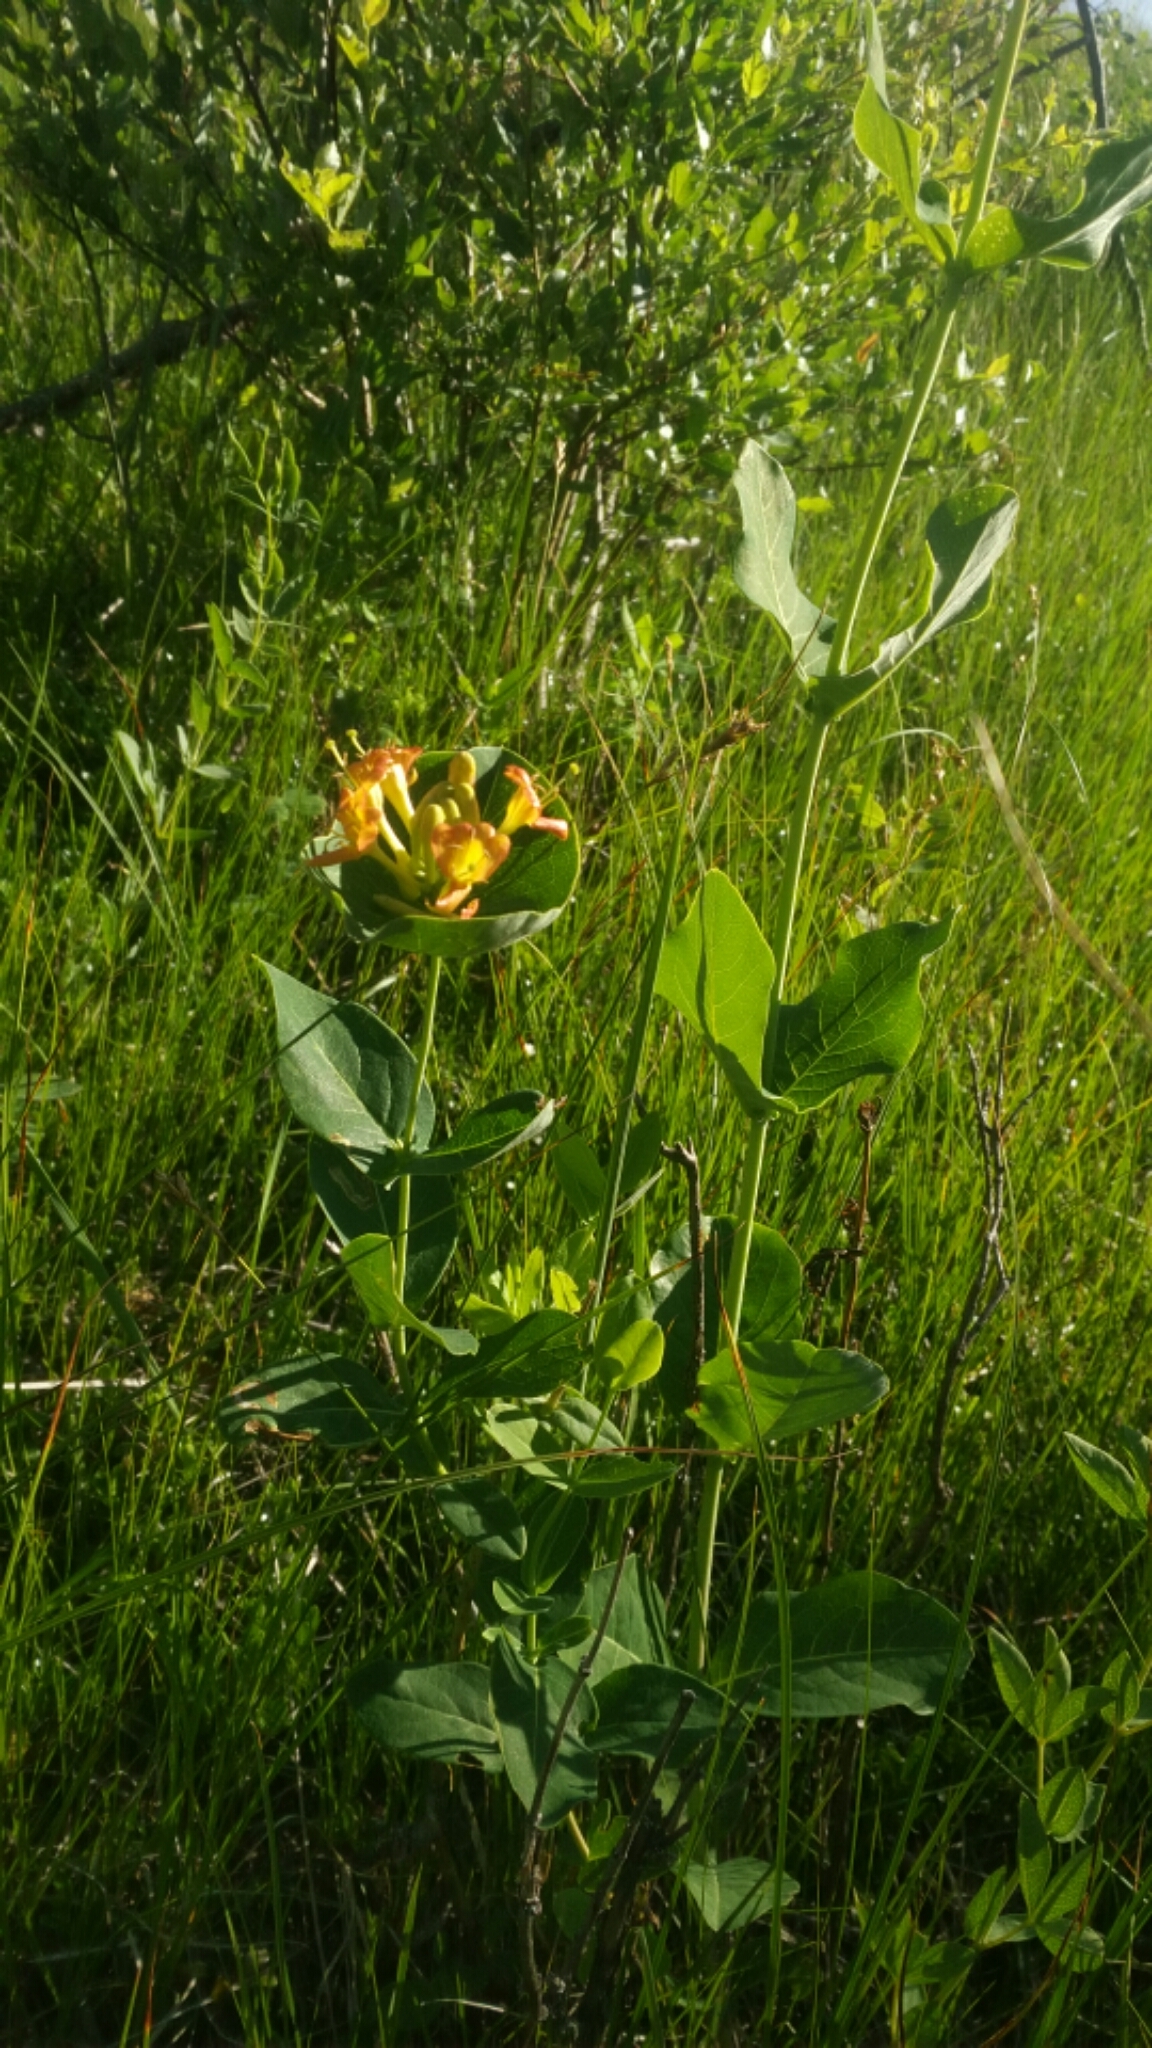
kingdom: Plantae
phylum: Tracheophyta
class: Magnoliopsida
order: Dipsacales
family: Caprifoliaceae
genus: Lonicera
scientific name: Lonicera dioica
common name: Limber honeysuckle
